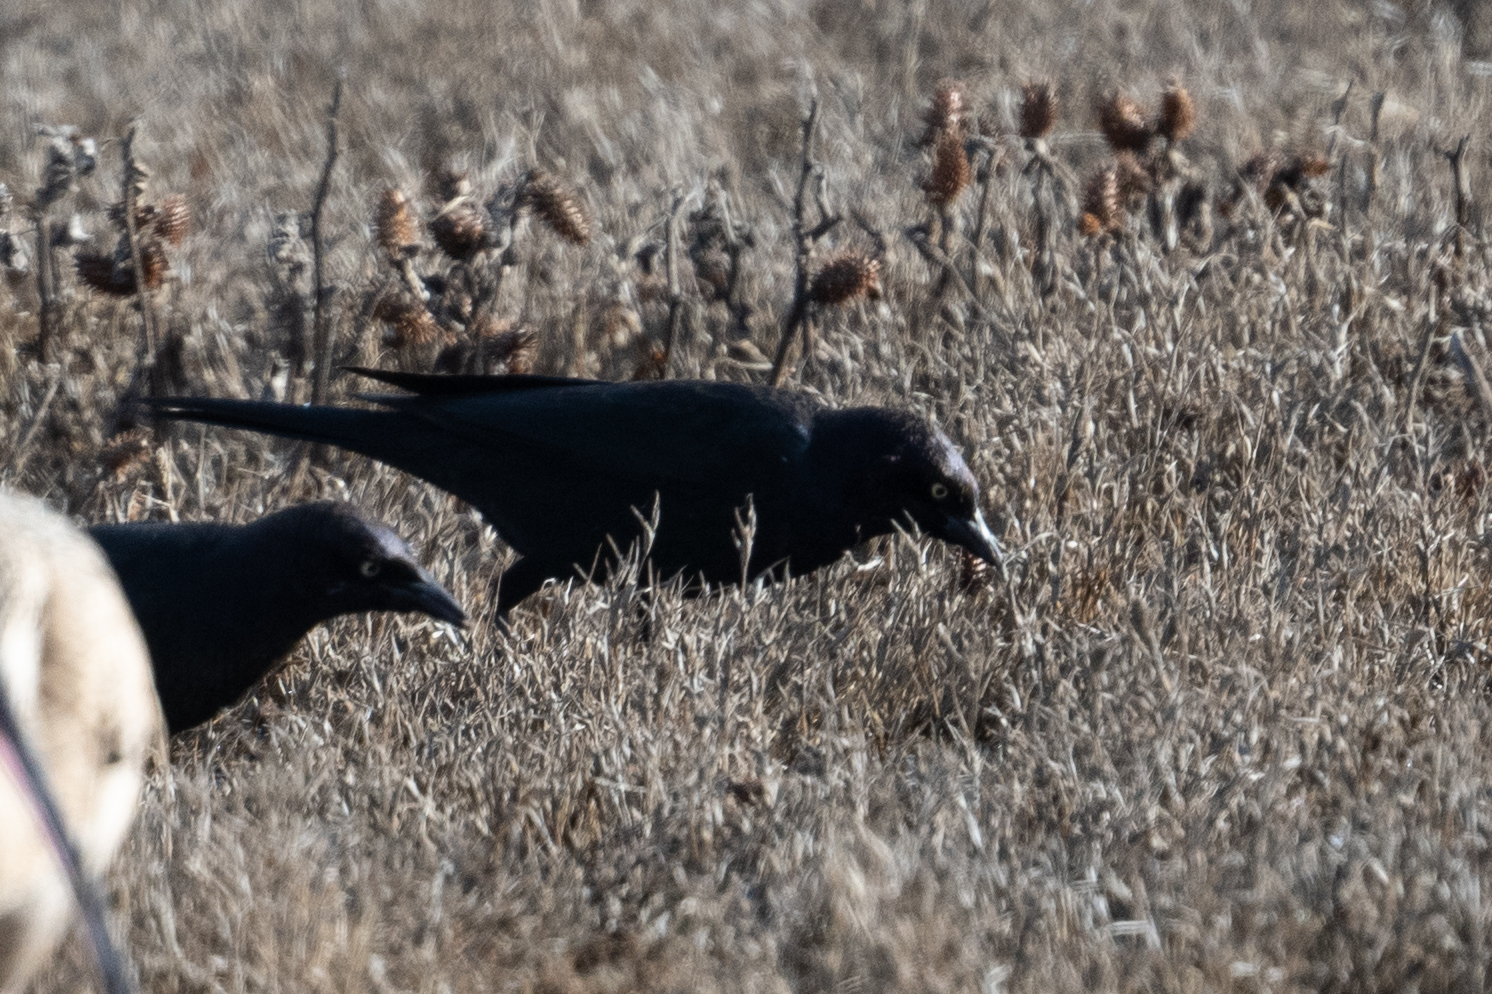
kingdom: Animalia
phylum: Chordata
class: Aves
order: Passeriformes
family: Icteridae
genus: Euphagus
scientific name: Euphagus cyanocephalus
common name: Brewer's blackbird
